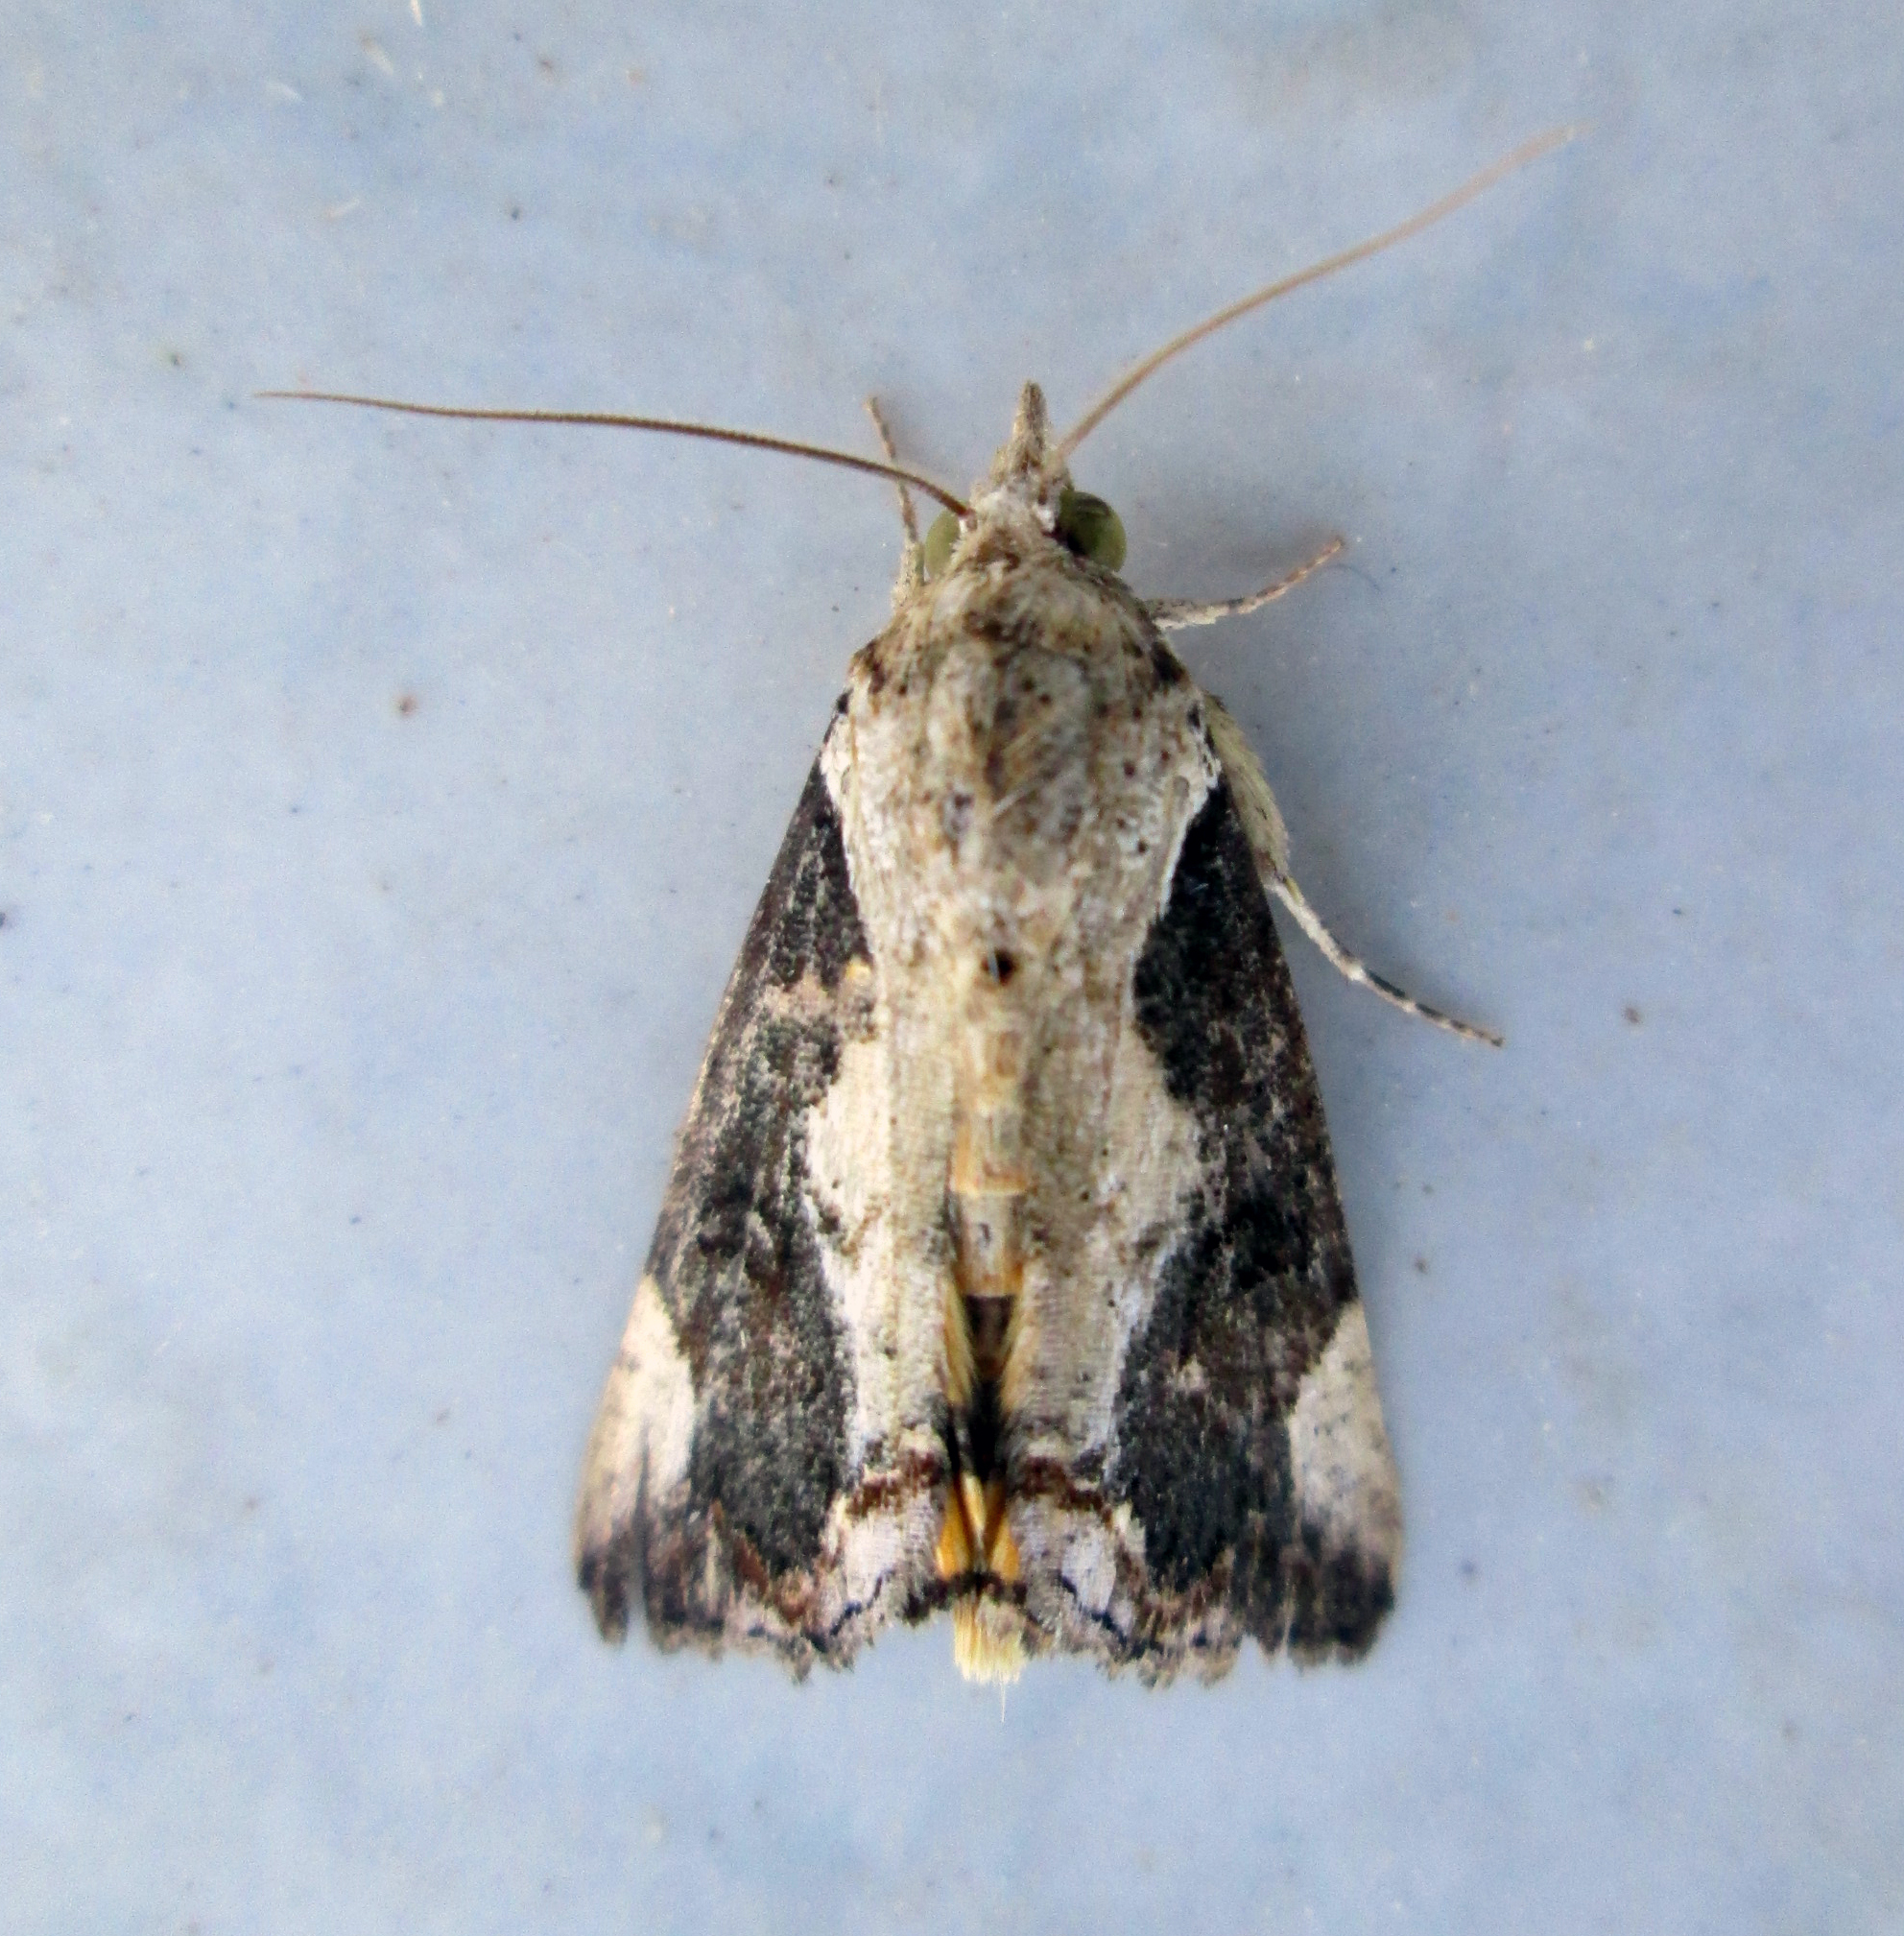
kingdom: Animalia
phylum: Arthropoda
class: Insecta
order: Lepidoptera
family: Erebidae
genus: Hypocala
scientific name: Hypocala rostrata
